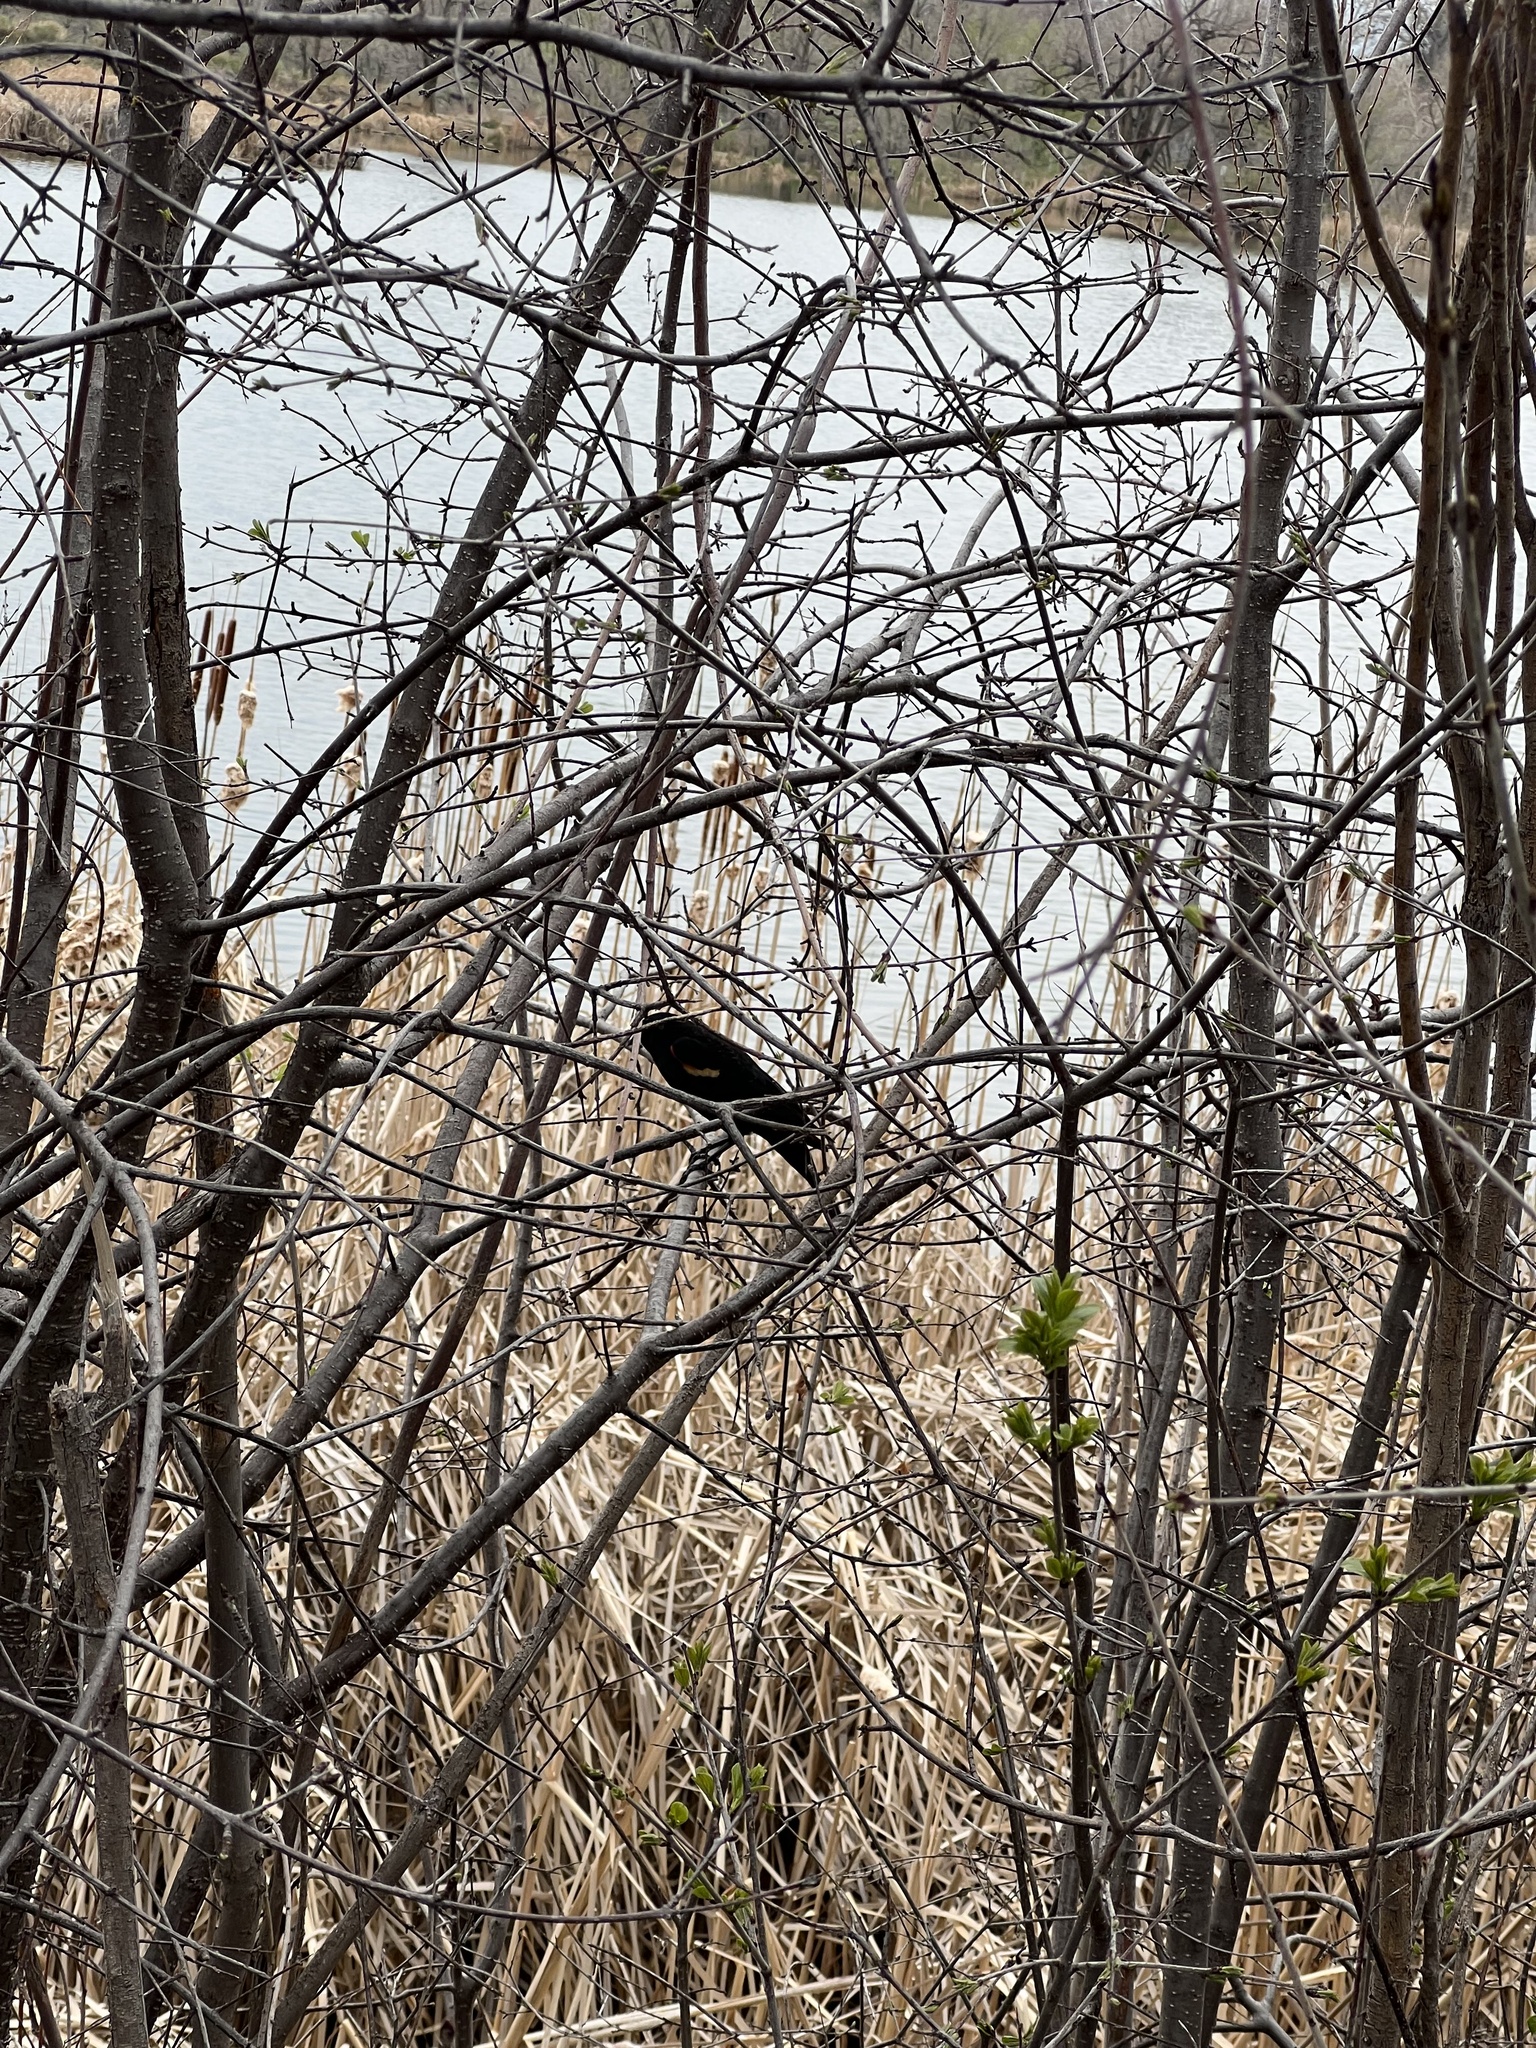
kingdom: Animalia
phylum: Chordata
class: Aves
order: Passeriformes
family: Icteridae
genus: Agelaius
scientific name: Agelaius phoeniceus
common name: Red-winged blackbird
